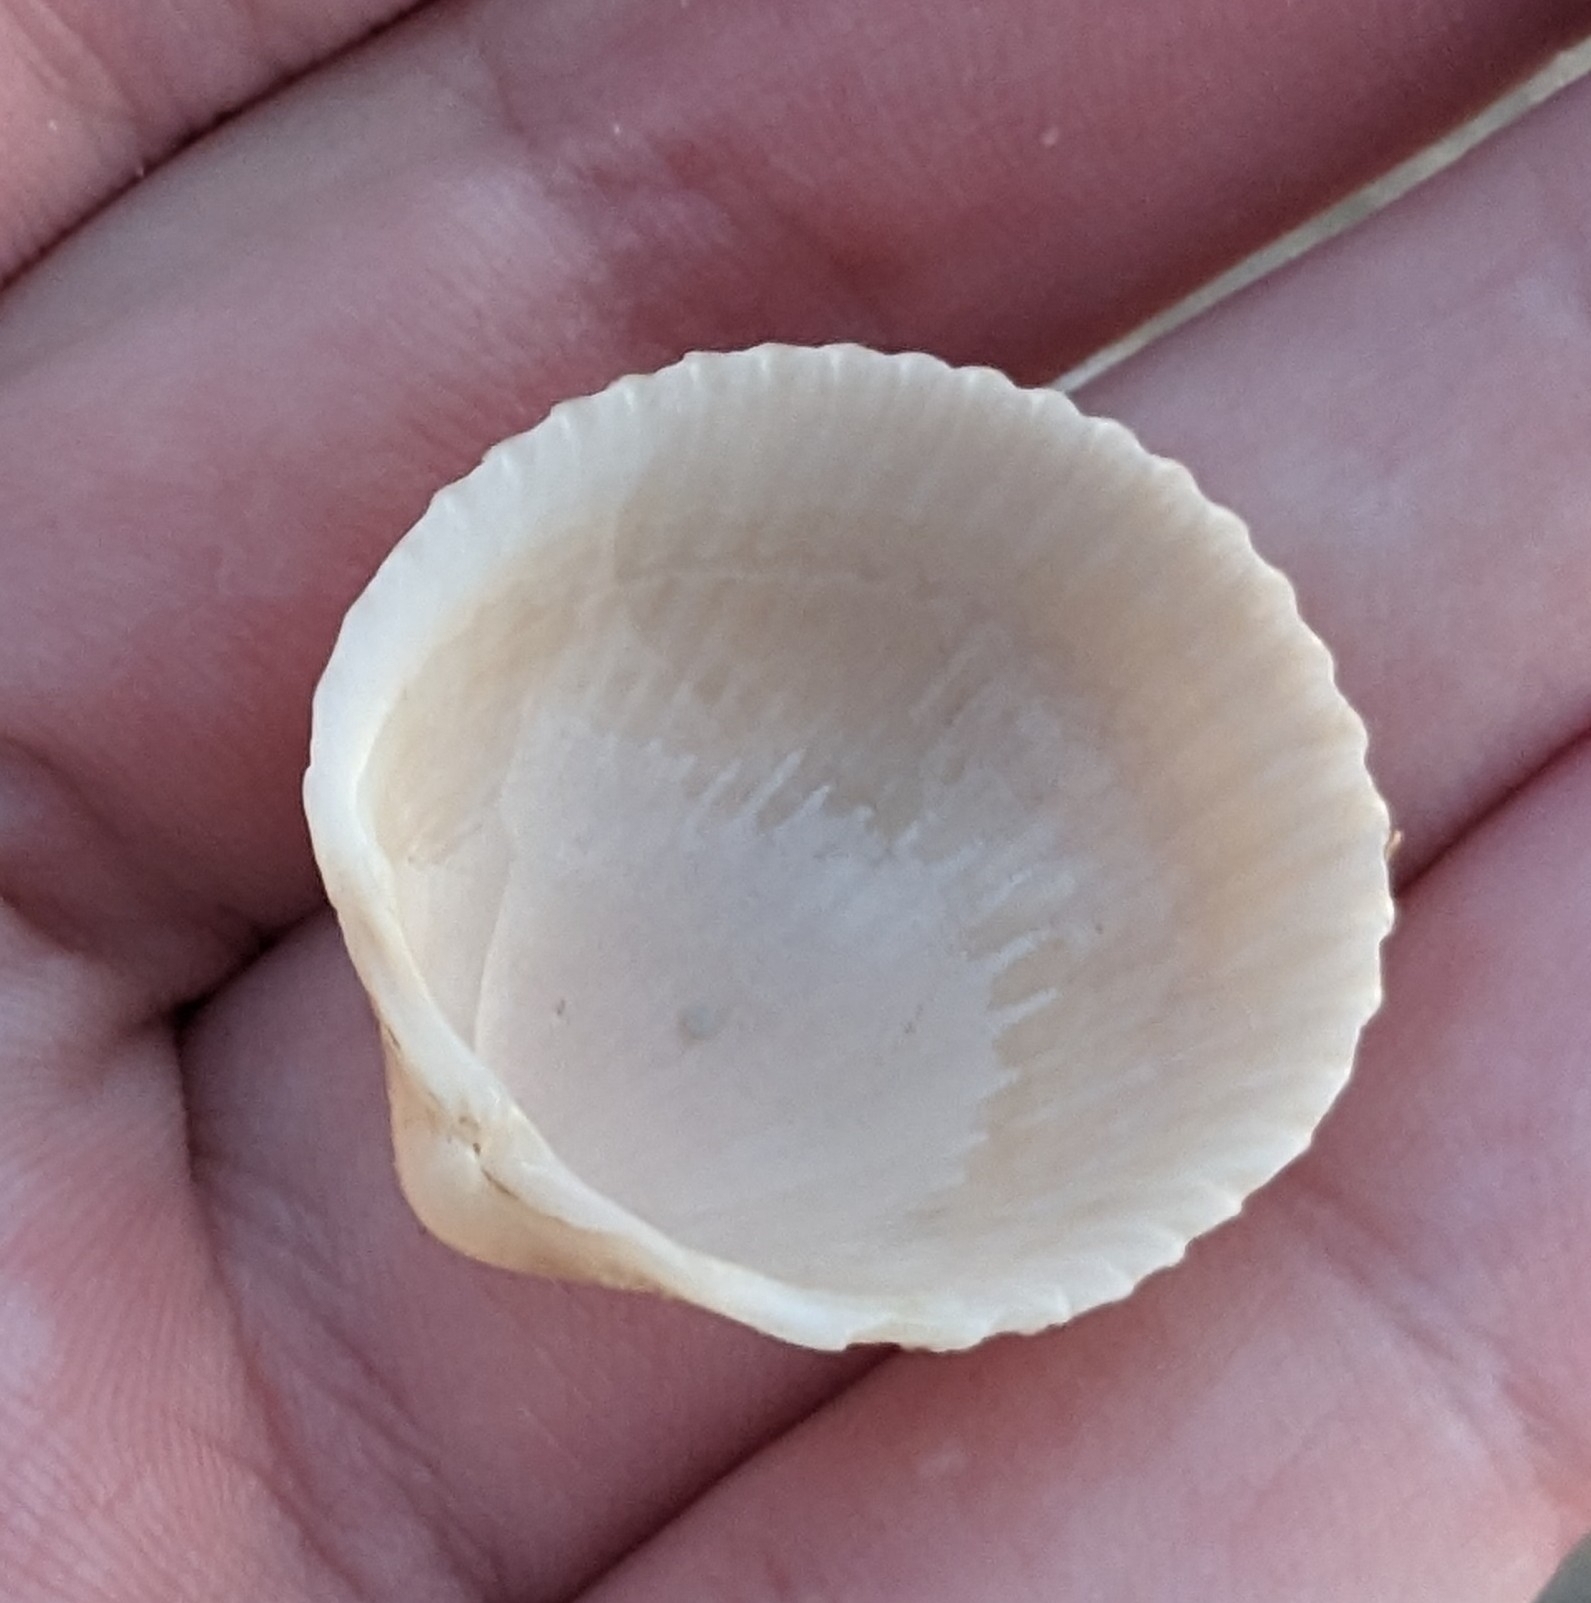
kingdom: Animalia
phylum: Mollusca
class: Bivalvia
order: Cardiida
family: Cardiidae
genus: Dallocardia
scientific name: Dallocardia muricata
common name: Yellow pricklycockle
